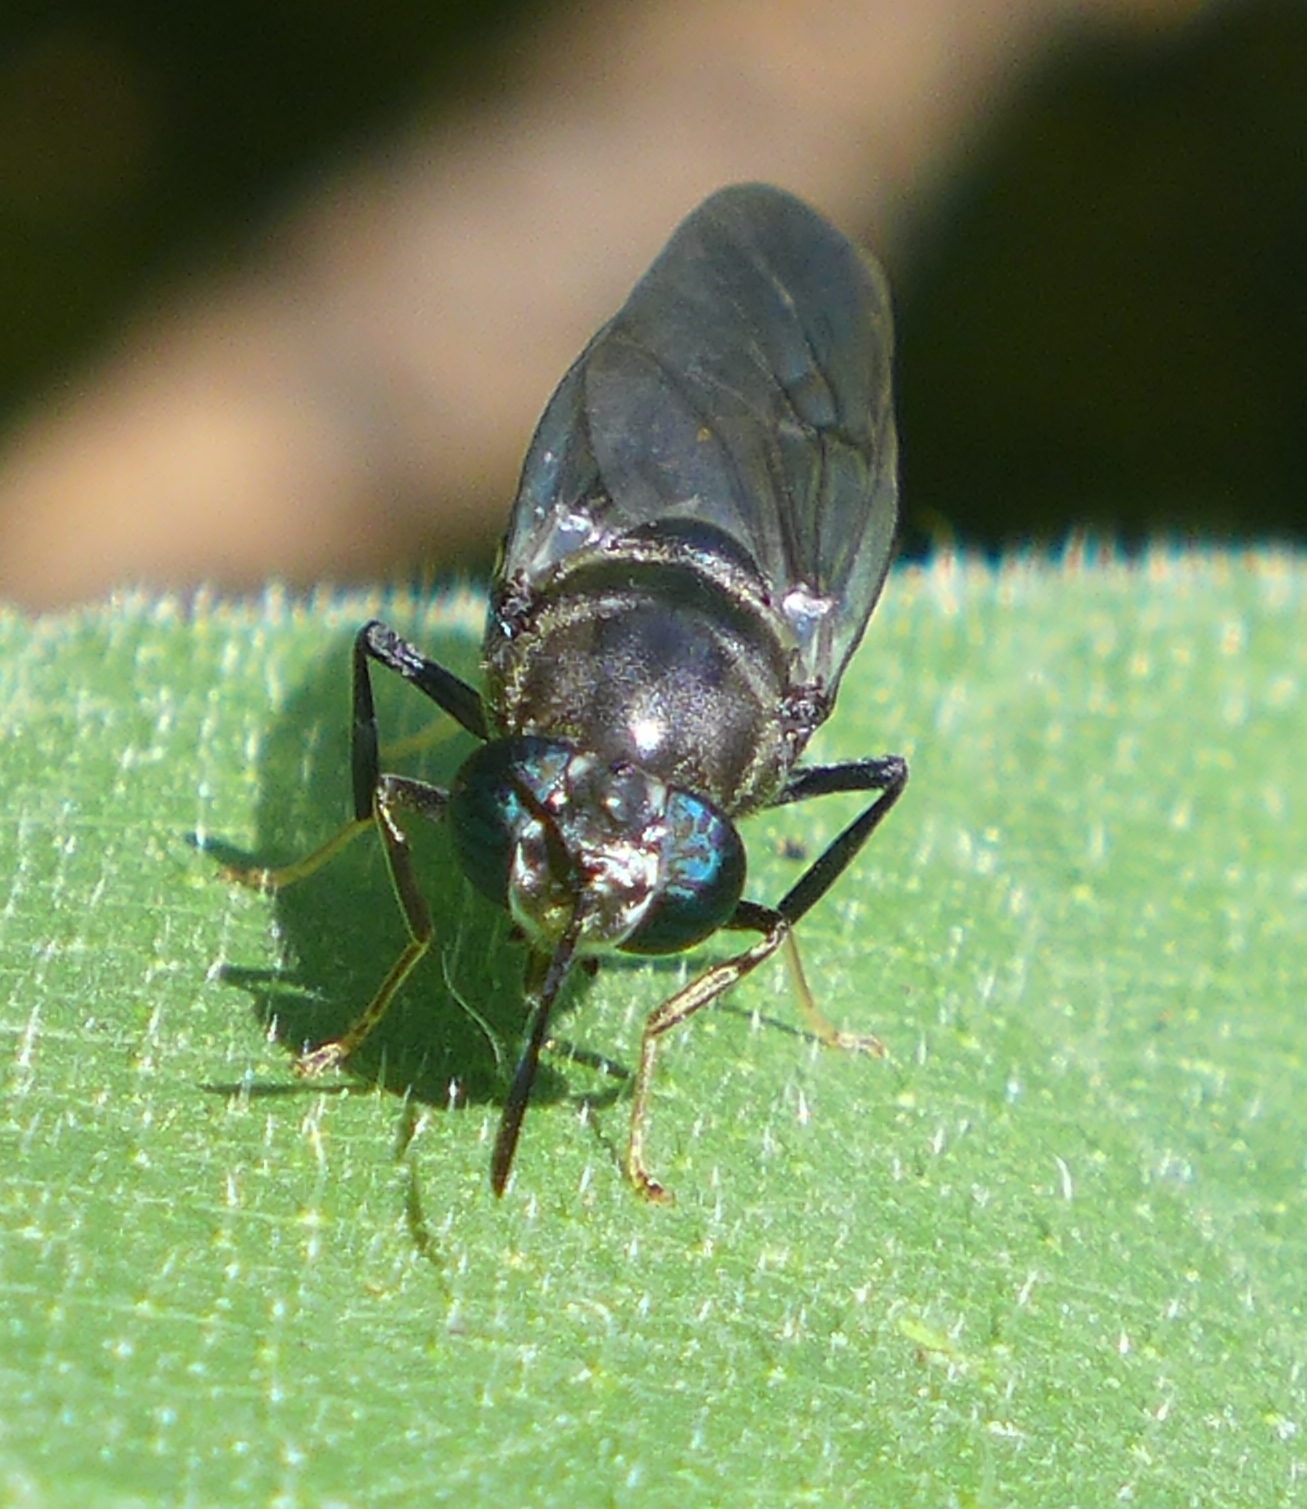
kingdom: Animalia
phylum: Arthropoda
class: Insecta
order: Diptera
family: Stratiomyidae
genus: Hermetia
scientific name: Hermetia illucens
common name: Black soldier fly
